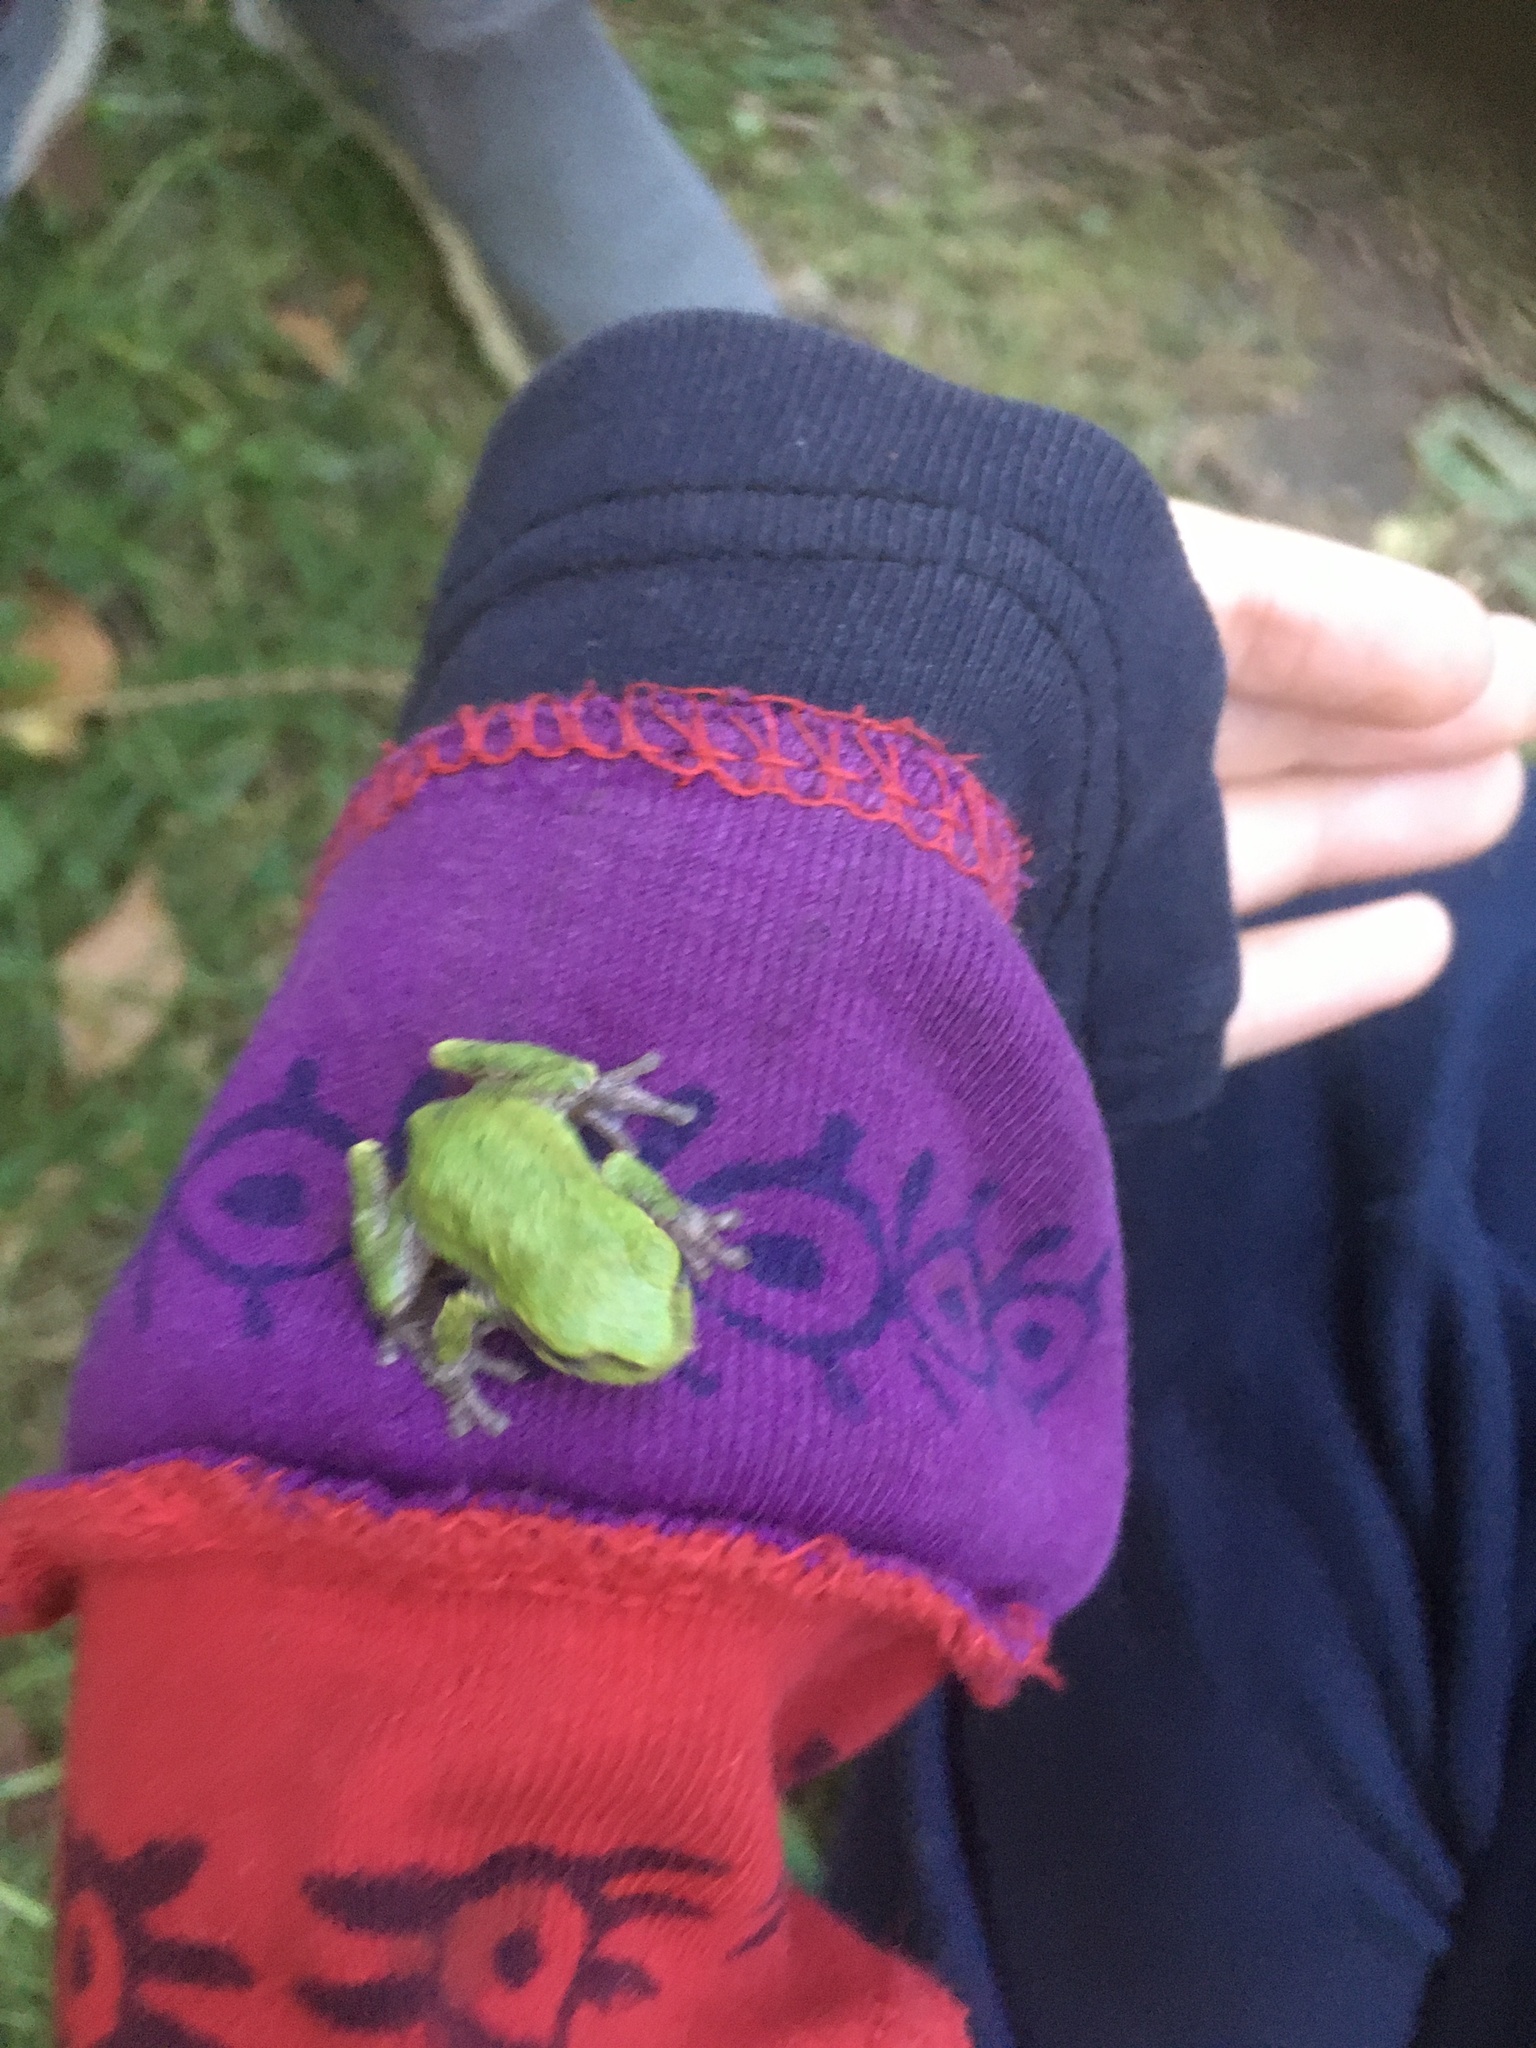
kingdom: Animalia
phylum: Chordata
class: Amphibia
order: Anura
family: Hylidae
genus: Hyla
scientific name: Hyla
